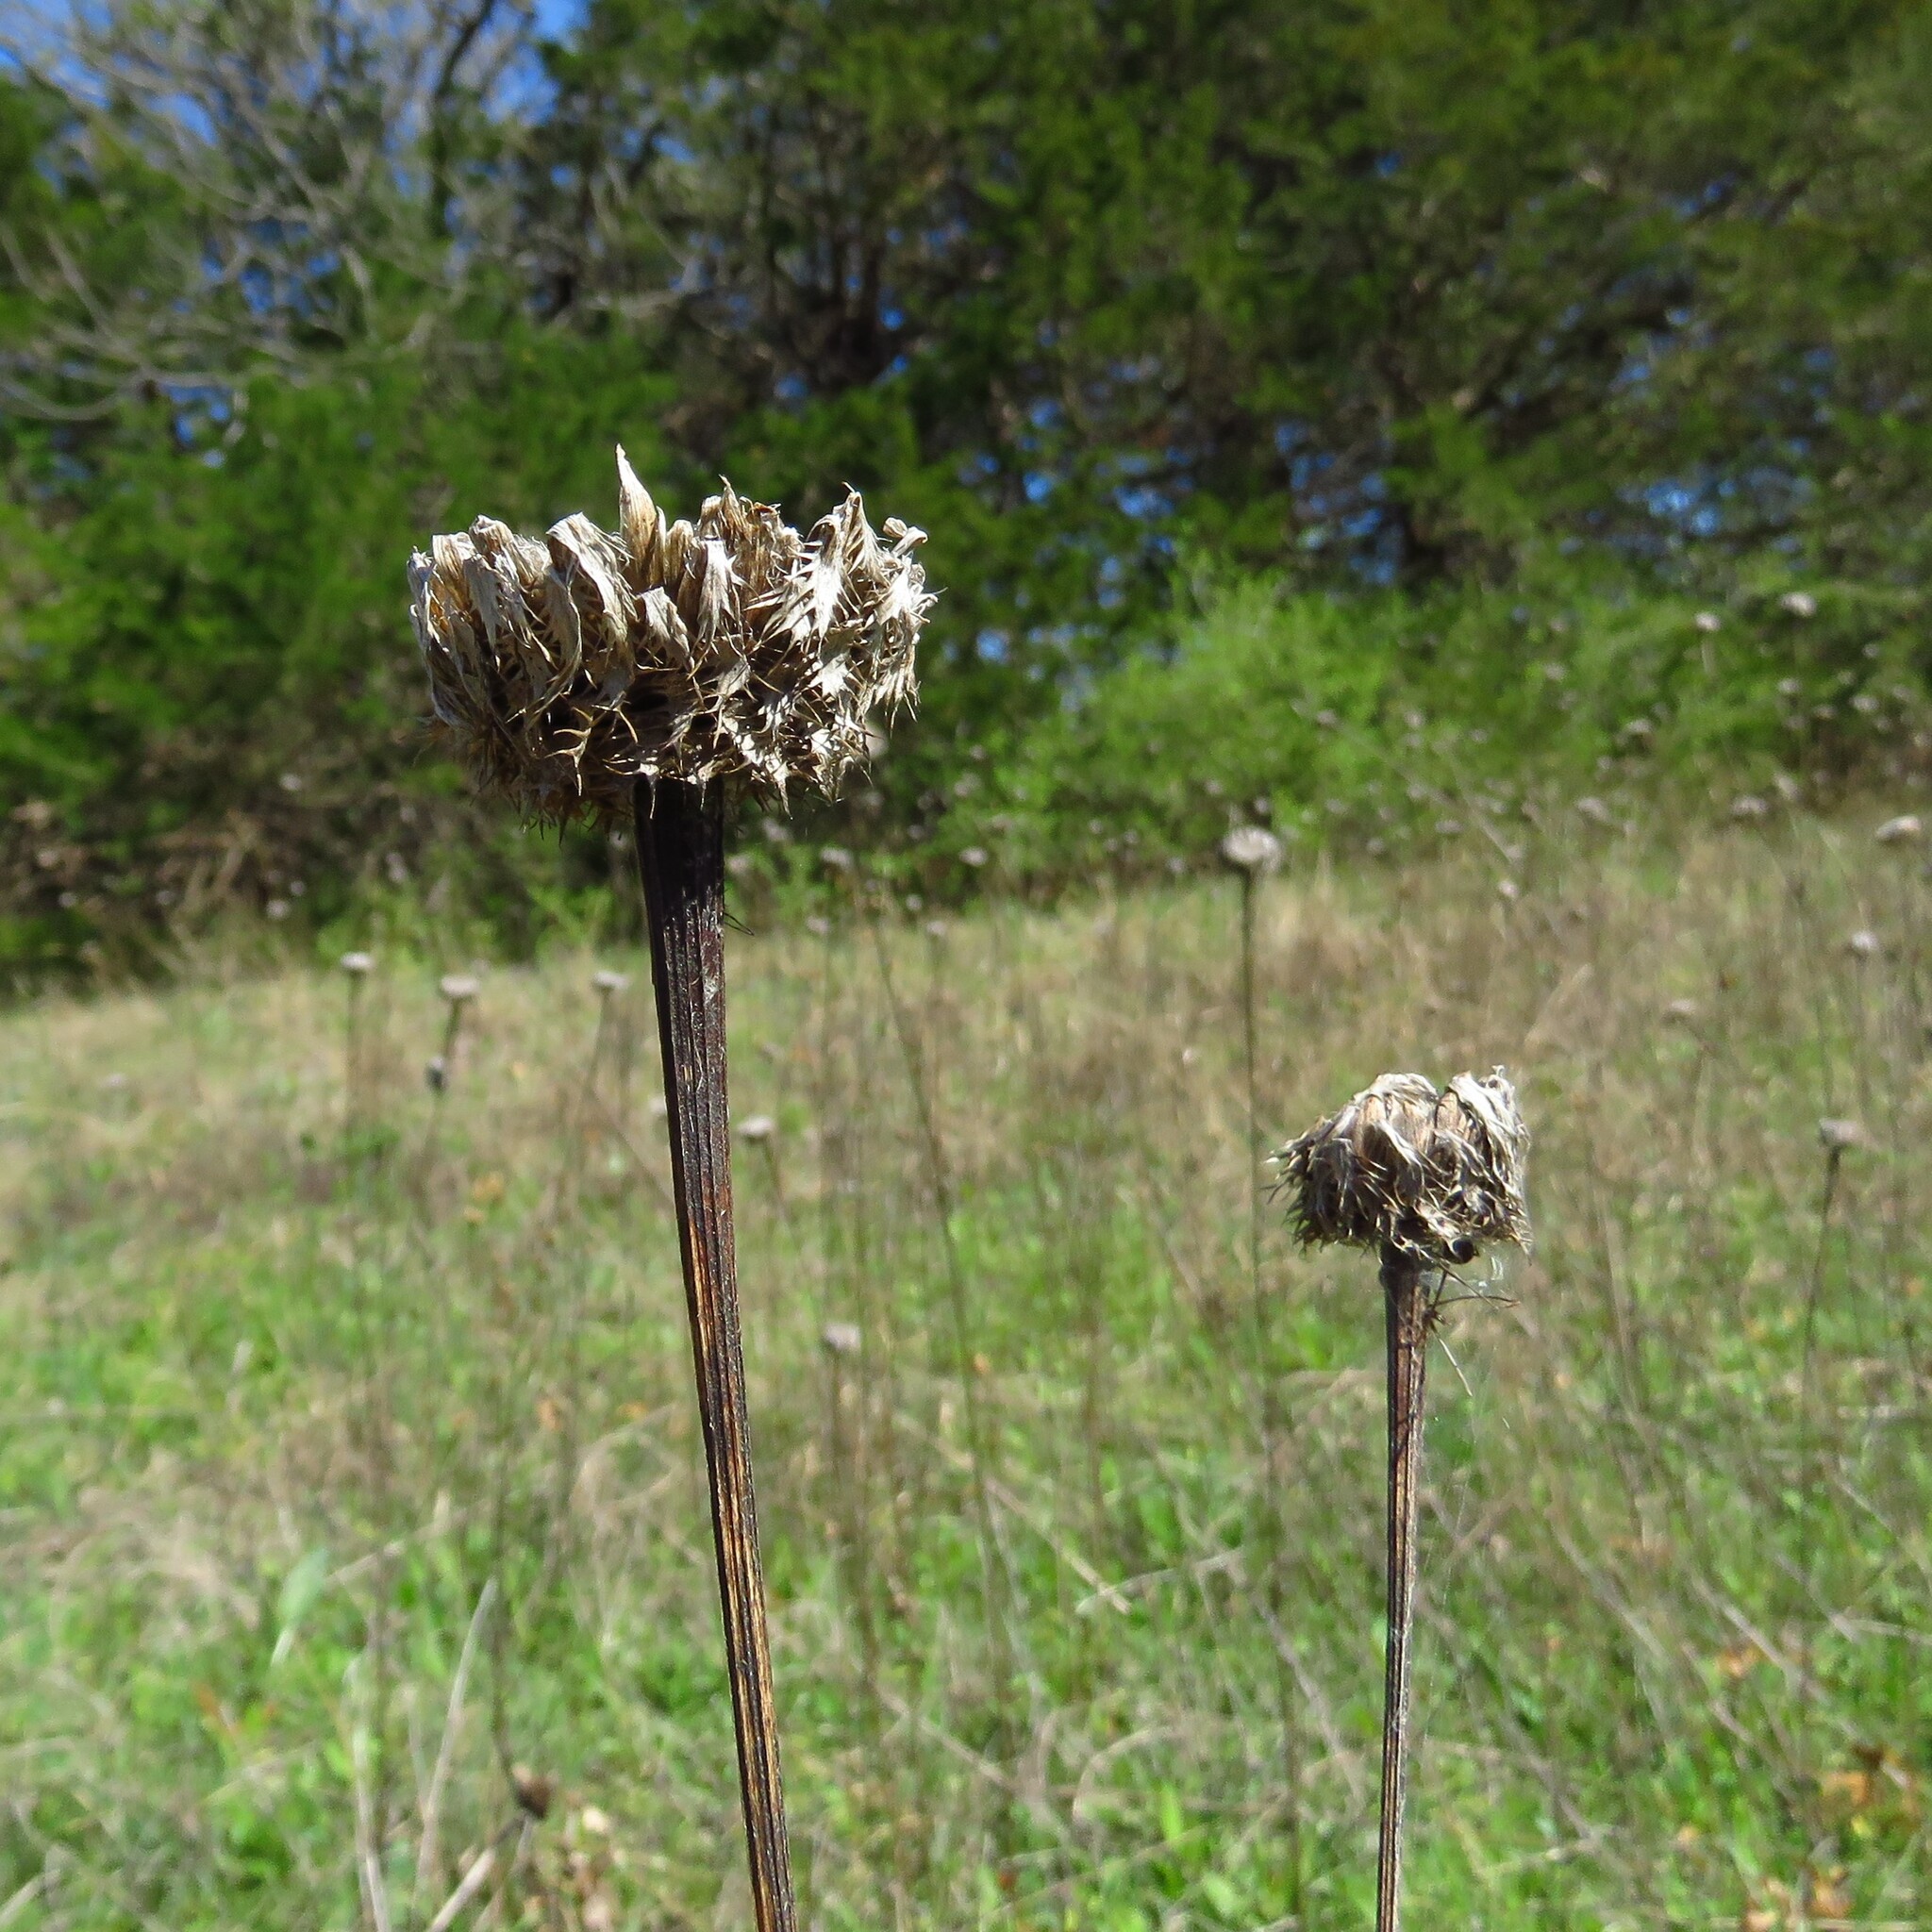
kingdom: Plantae
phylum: Tracheophyta
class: Magnoliopsida
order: Asterales
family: Asteraceae
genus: Plectocephalus
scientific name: Plectocephalus americanus
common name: American basket-flower
